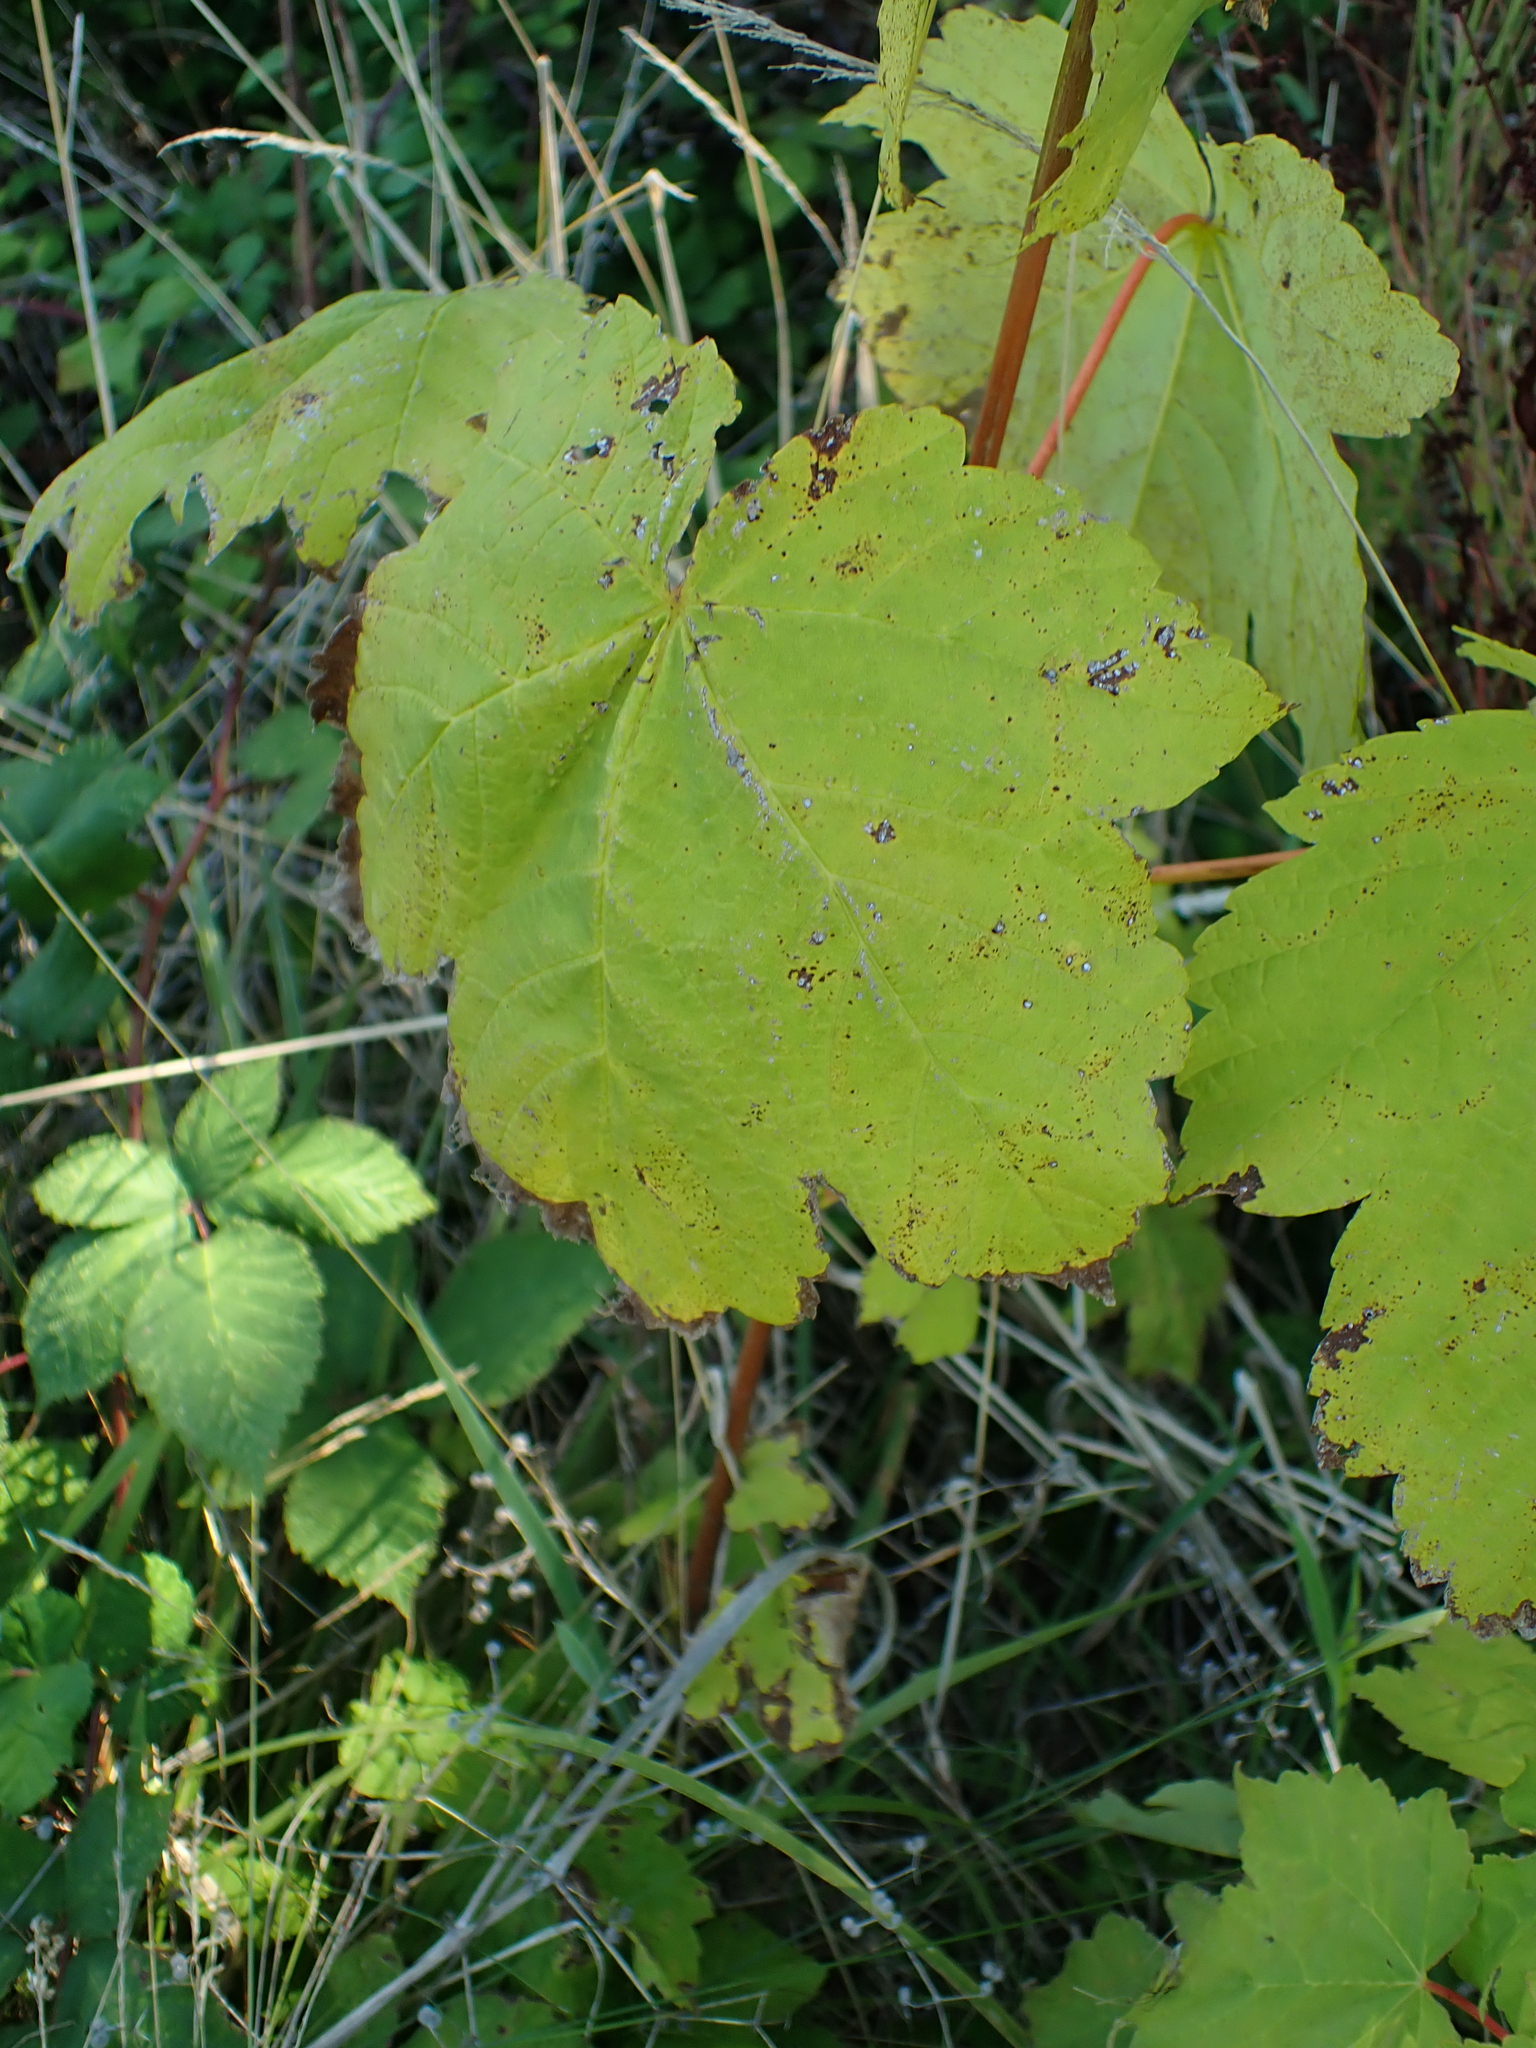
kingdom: Plantae
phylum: Tracheophyta
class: Magnoliopsida
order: Sapindales
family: Sapindaceae
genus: Acer
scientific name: Acer pseudoplatanus
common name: Sycamore
